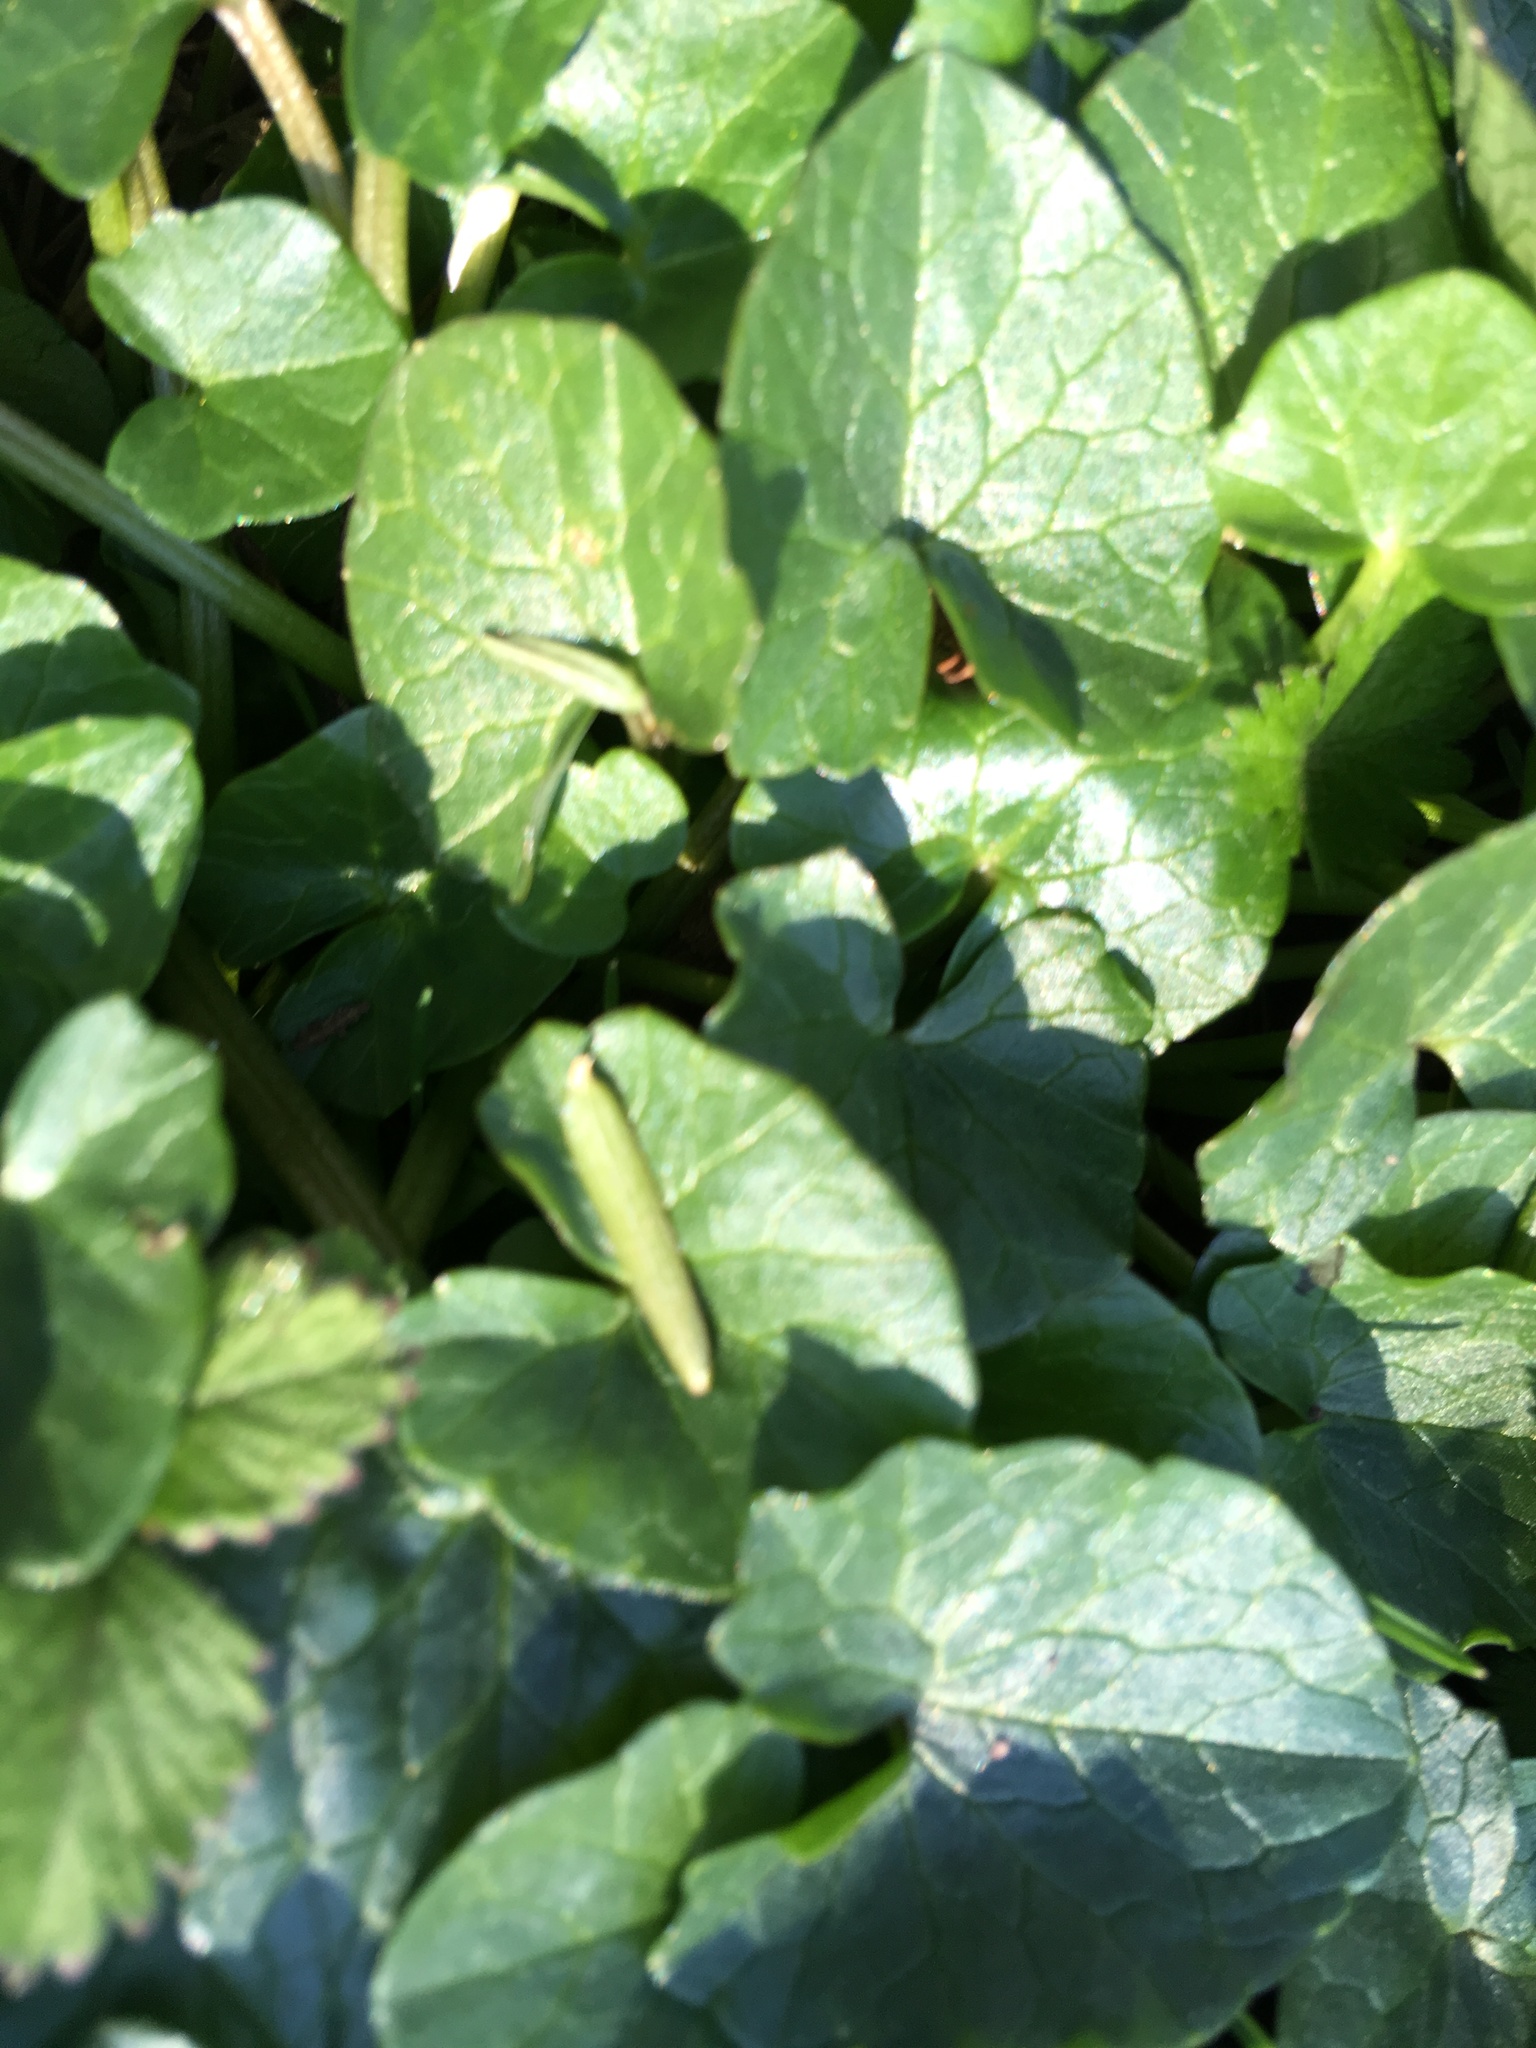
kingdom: Plantae
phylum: Tracheophyta
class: Magnoliopsida
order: Ranunculales
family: Ranunculaceae
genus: Ficaria
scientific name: Ficaria verna
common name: Lesser celandine
